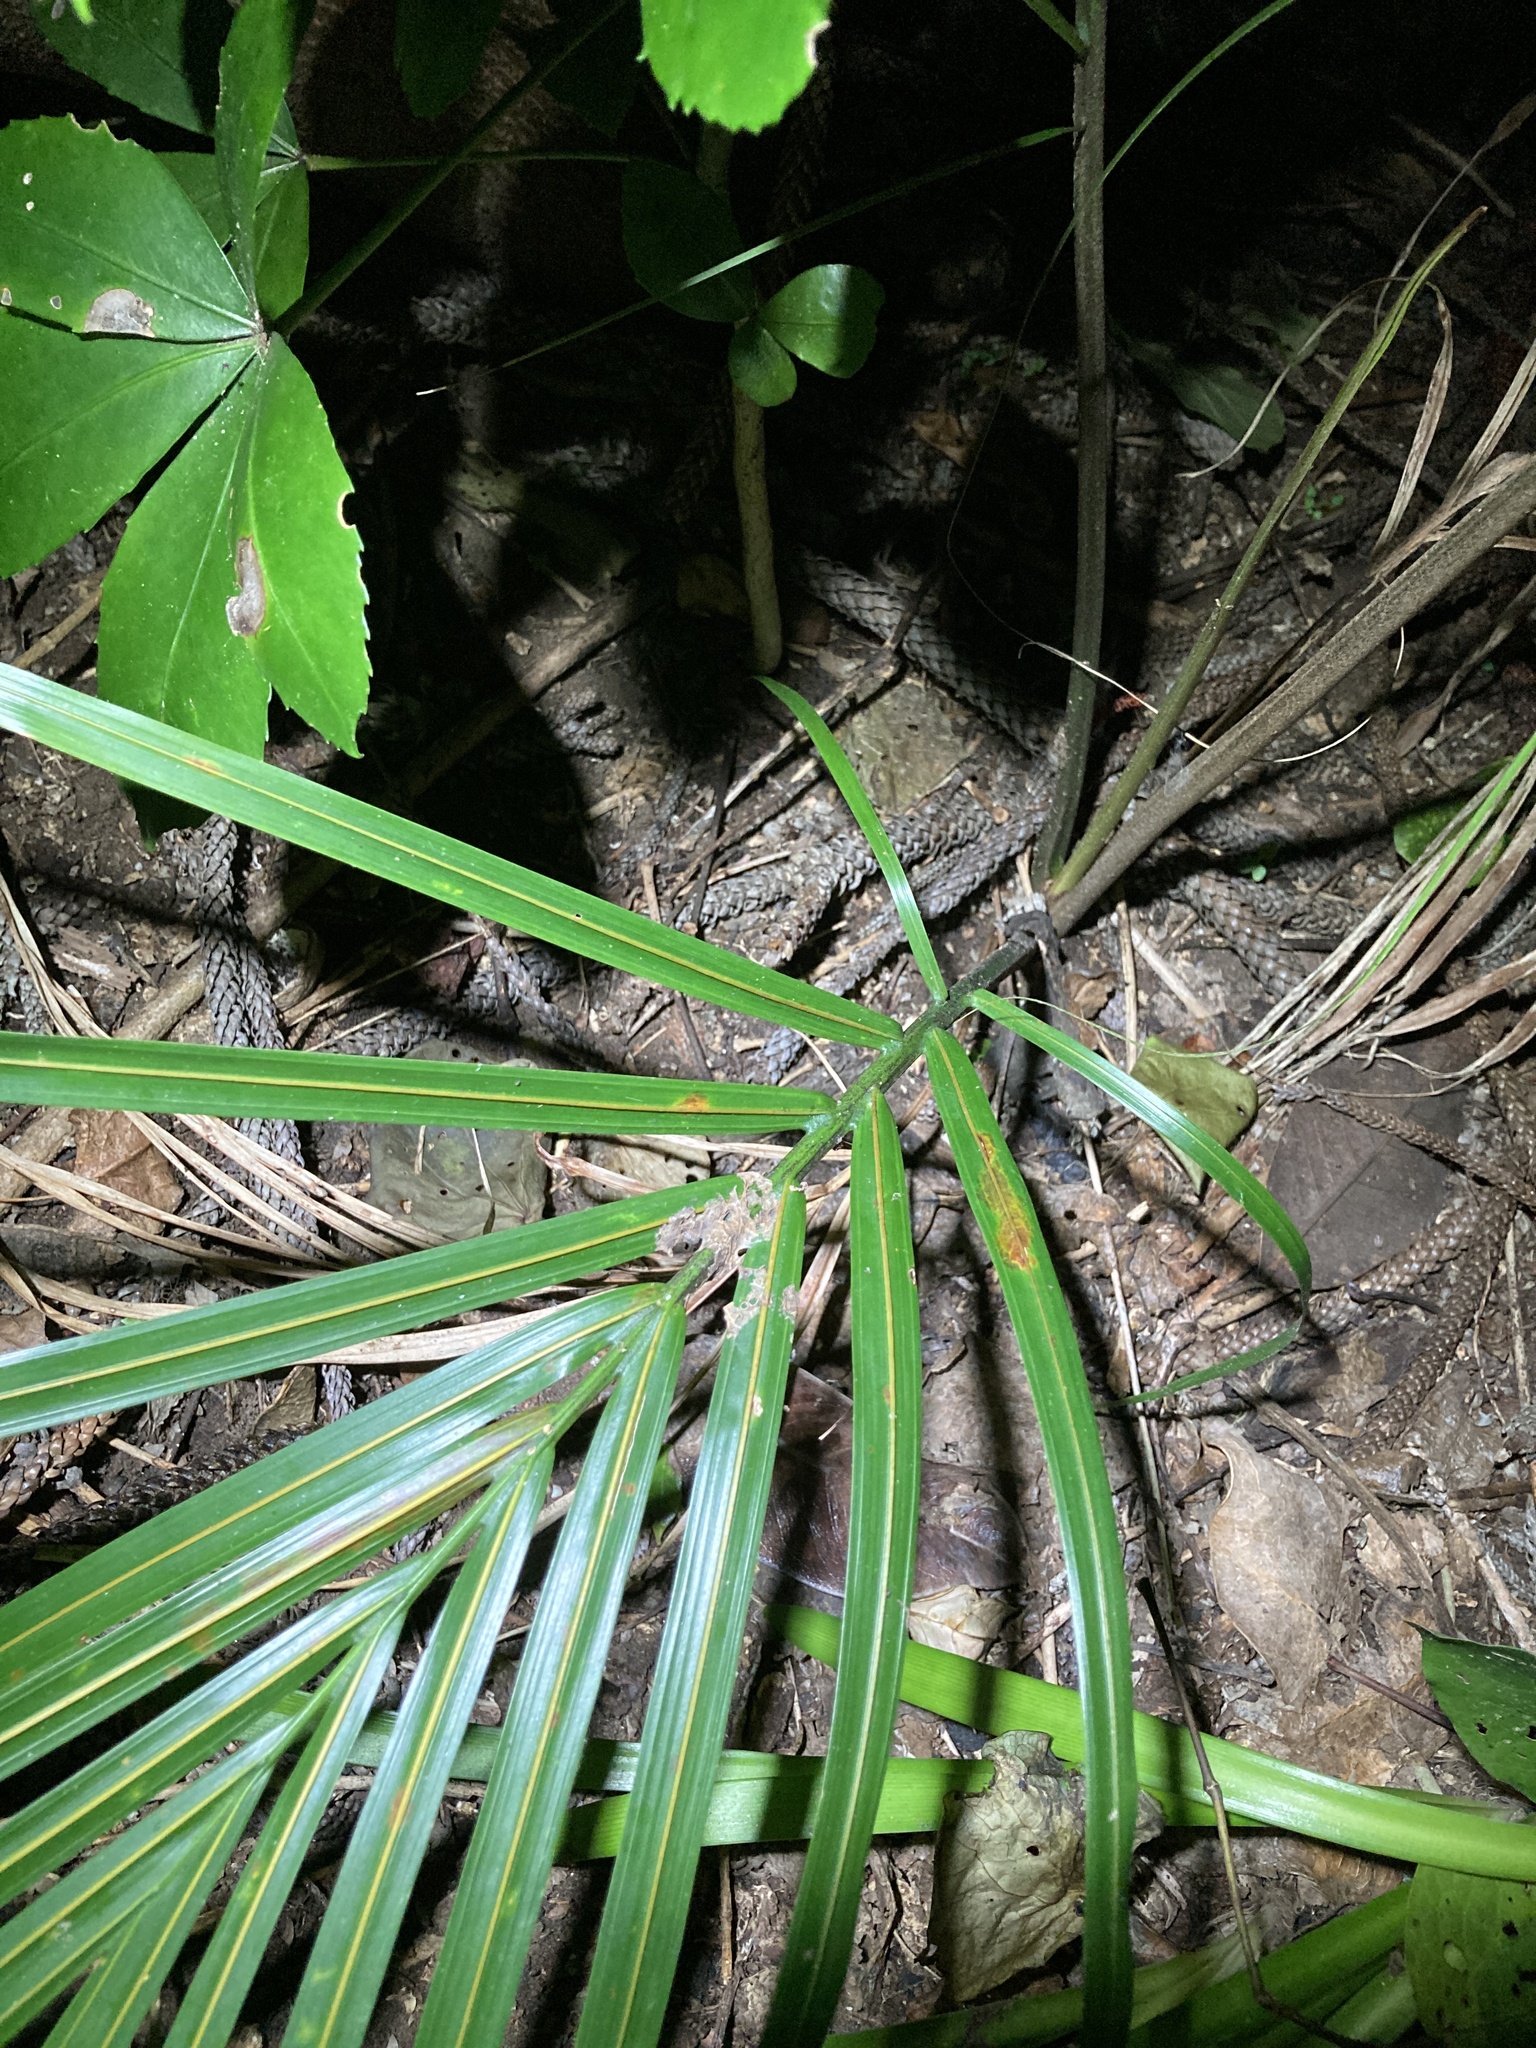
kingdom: Plantae
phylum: Tracheophyta
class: Liliopsida
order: Arecales
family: Arecaceae
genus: Rhopalostylis
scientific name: Rhopalostylis sapida
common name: Feather-duster palm
